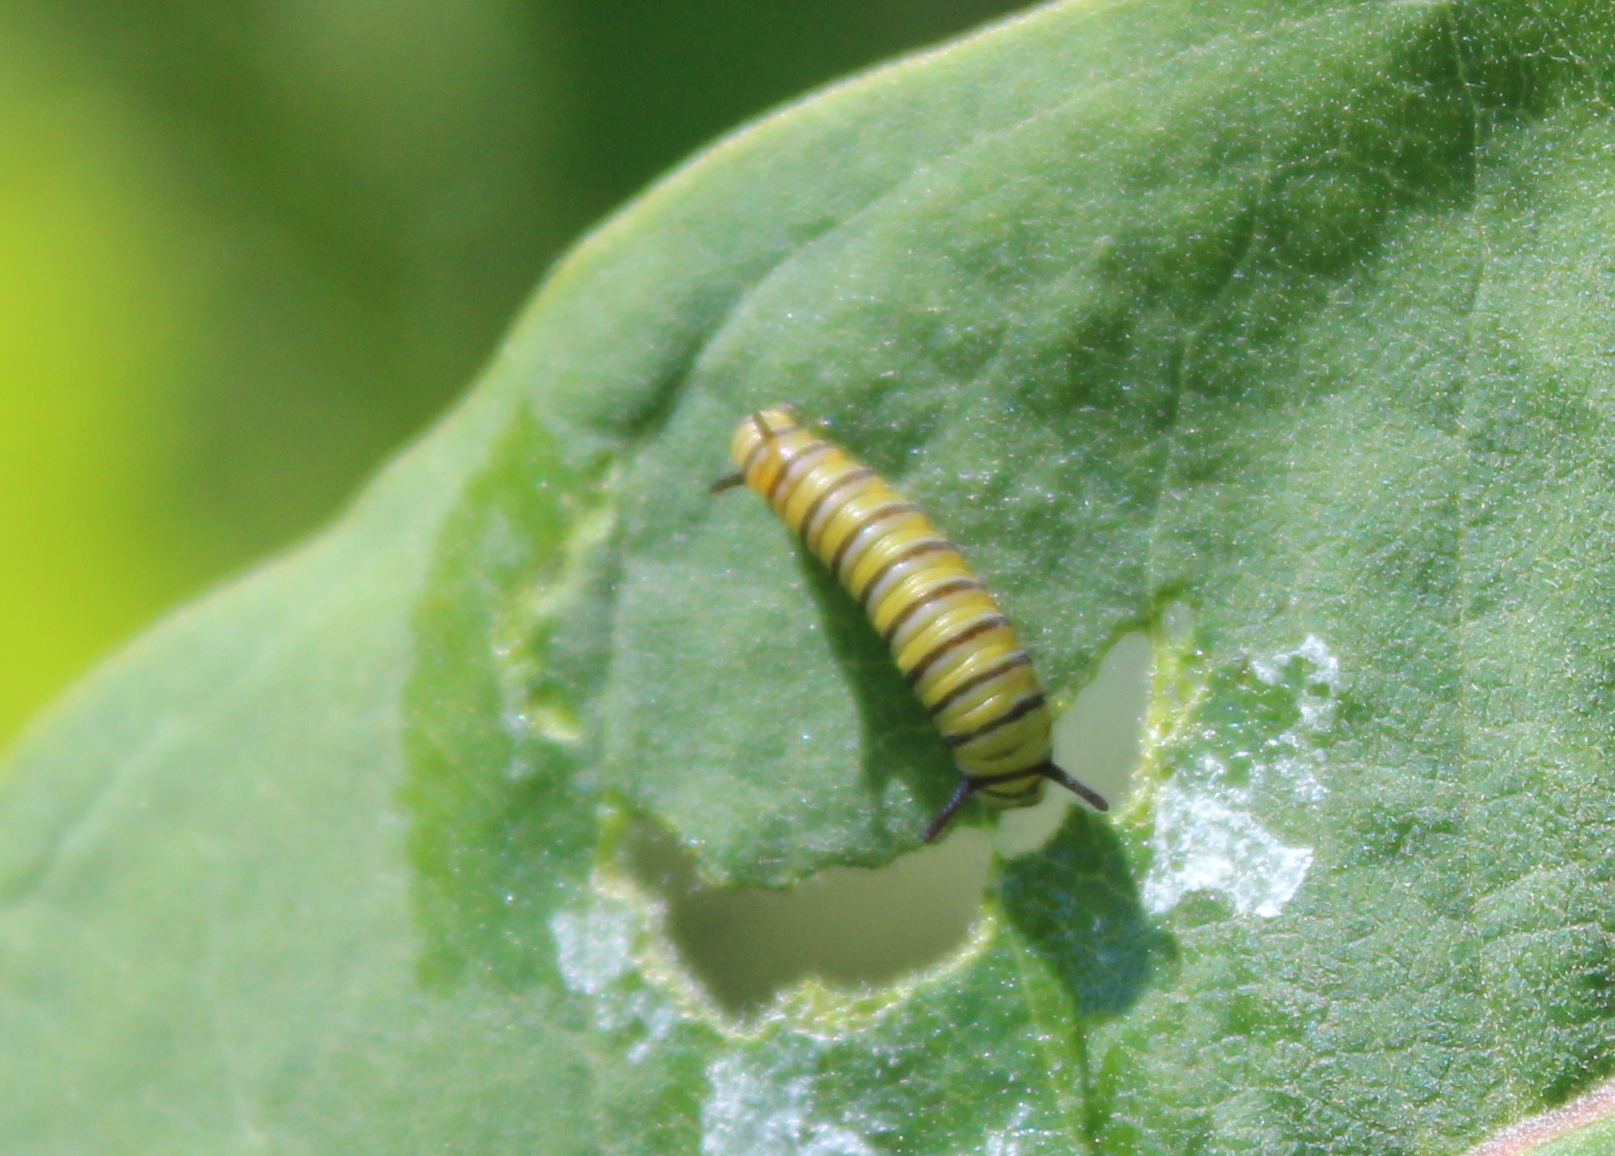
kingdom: Animalia
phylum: Arthropoda
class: Insecta
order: Lepidoptera
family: Nymphalidae
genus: Danaus
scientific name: Danaus plexippus
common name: Monarch
